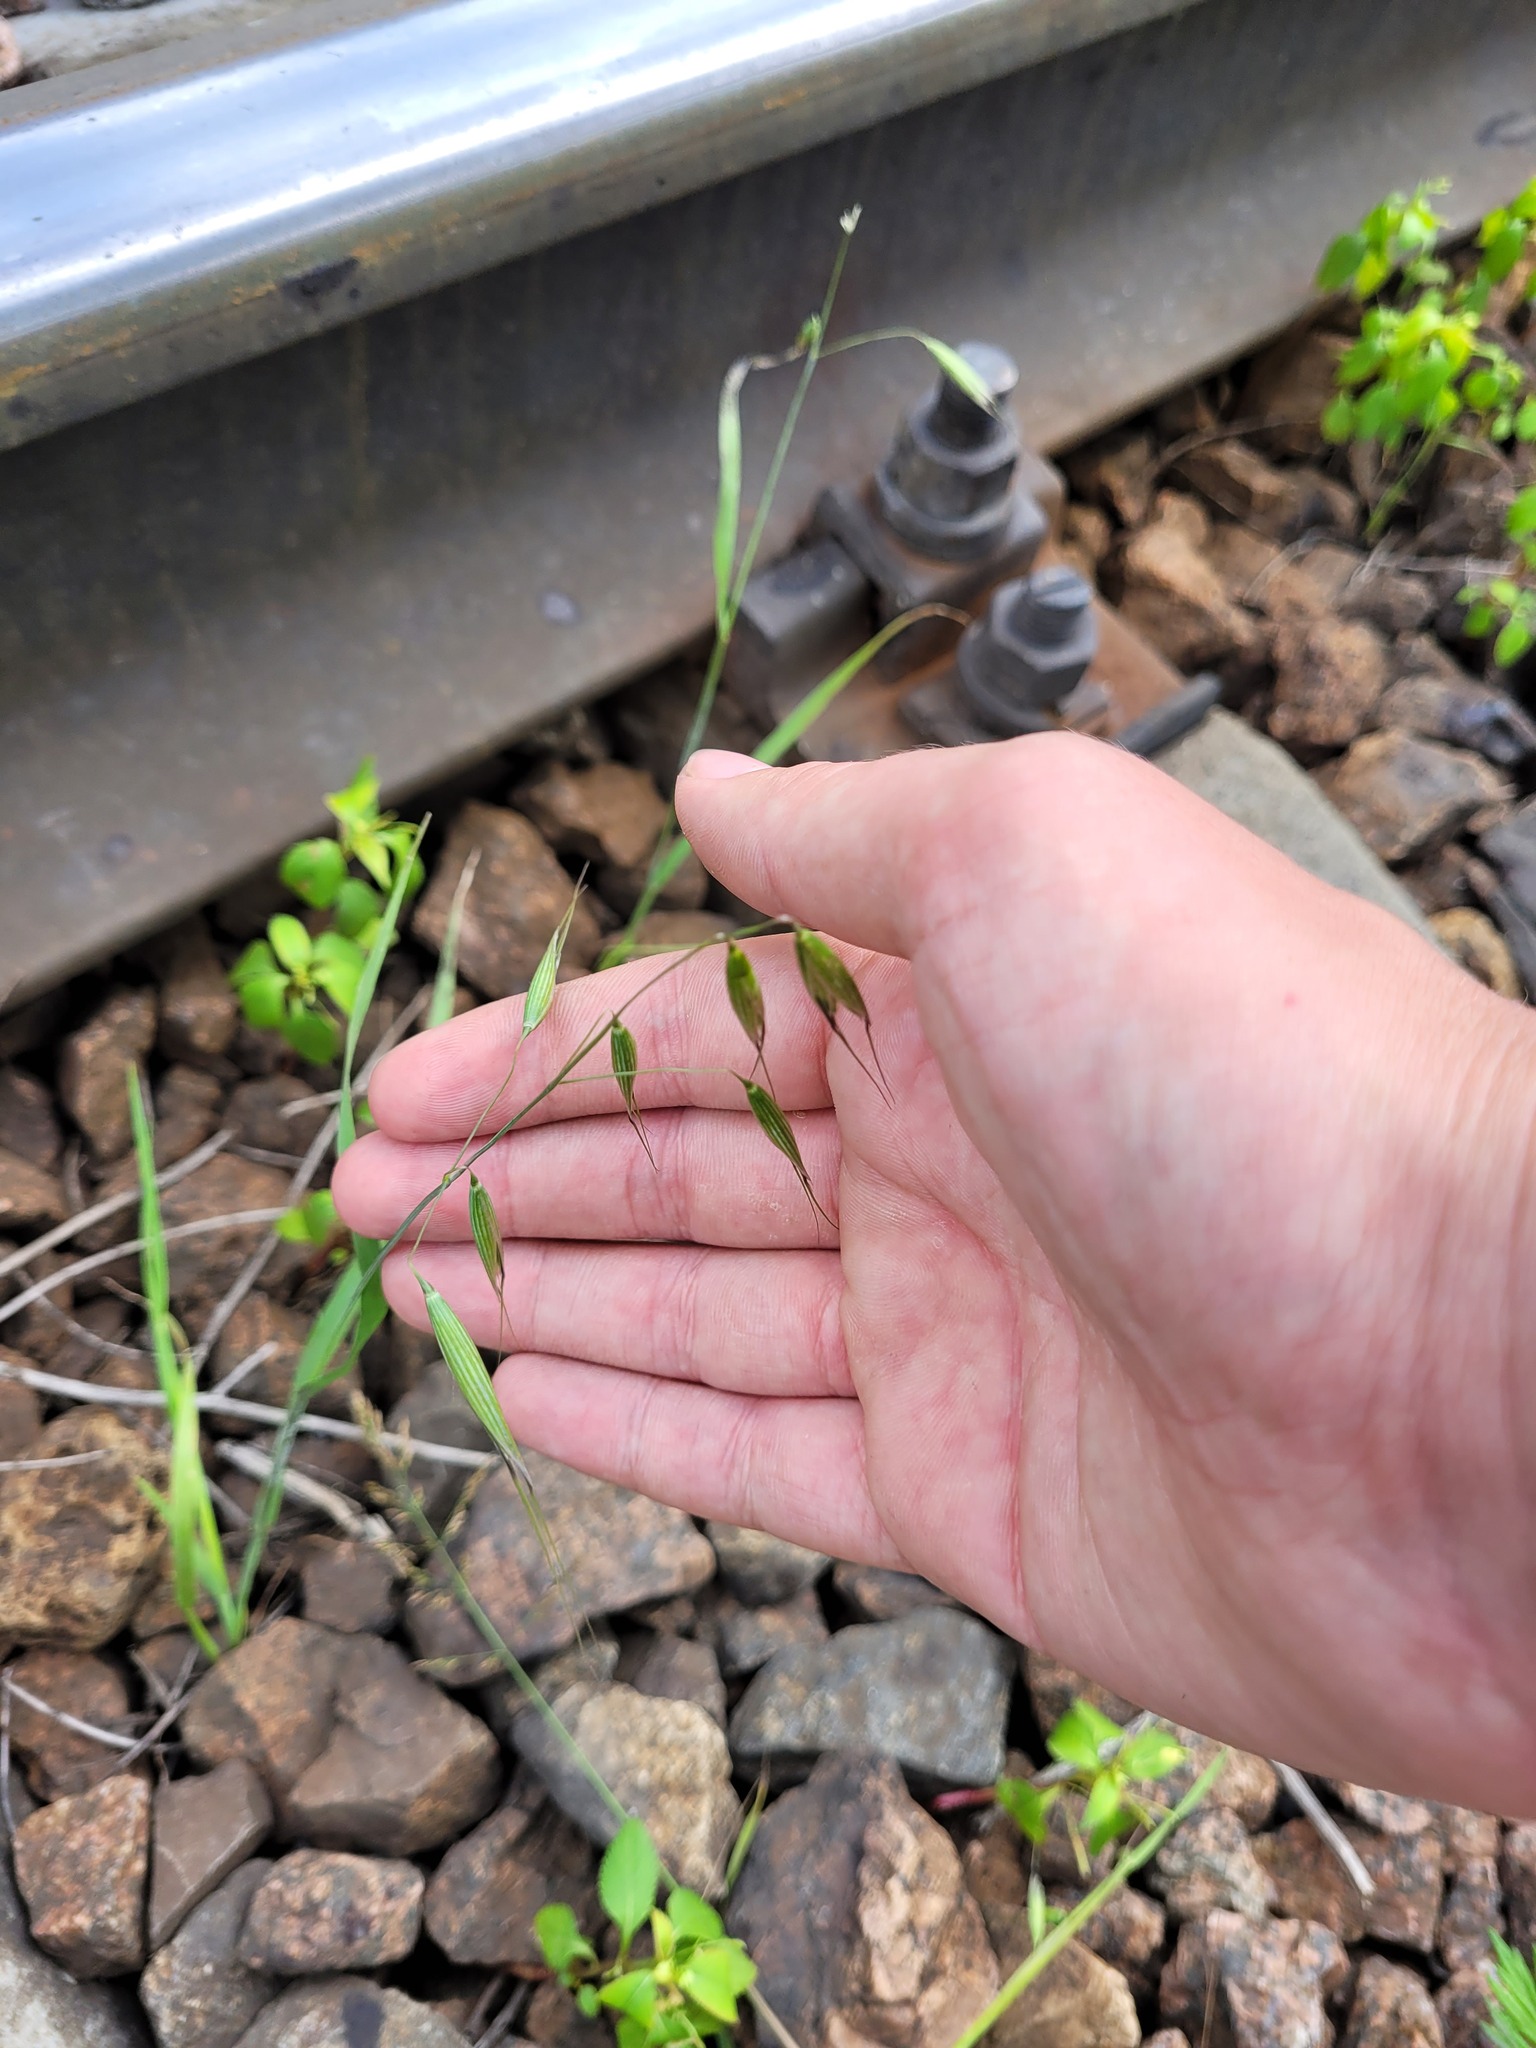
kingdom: Plantae
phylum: Tracheophyta
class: Liliopsida
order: Poales
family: Poaceae
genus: Avena
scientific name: Avena fatua
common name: Wild oat
